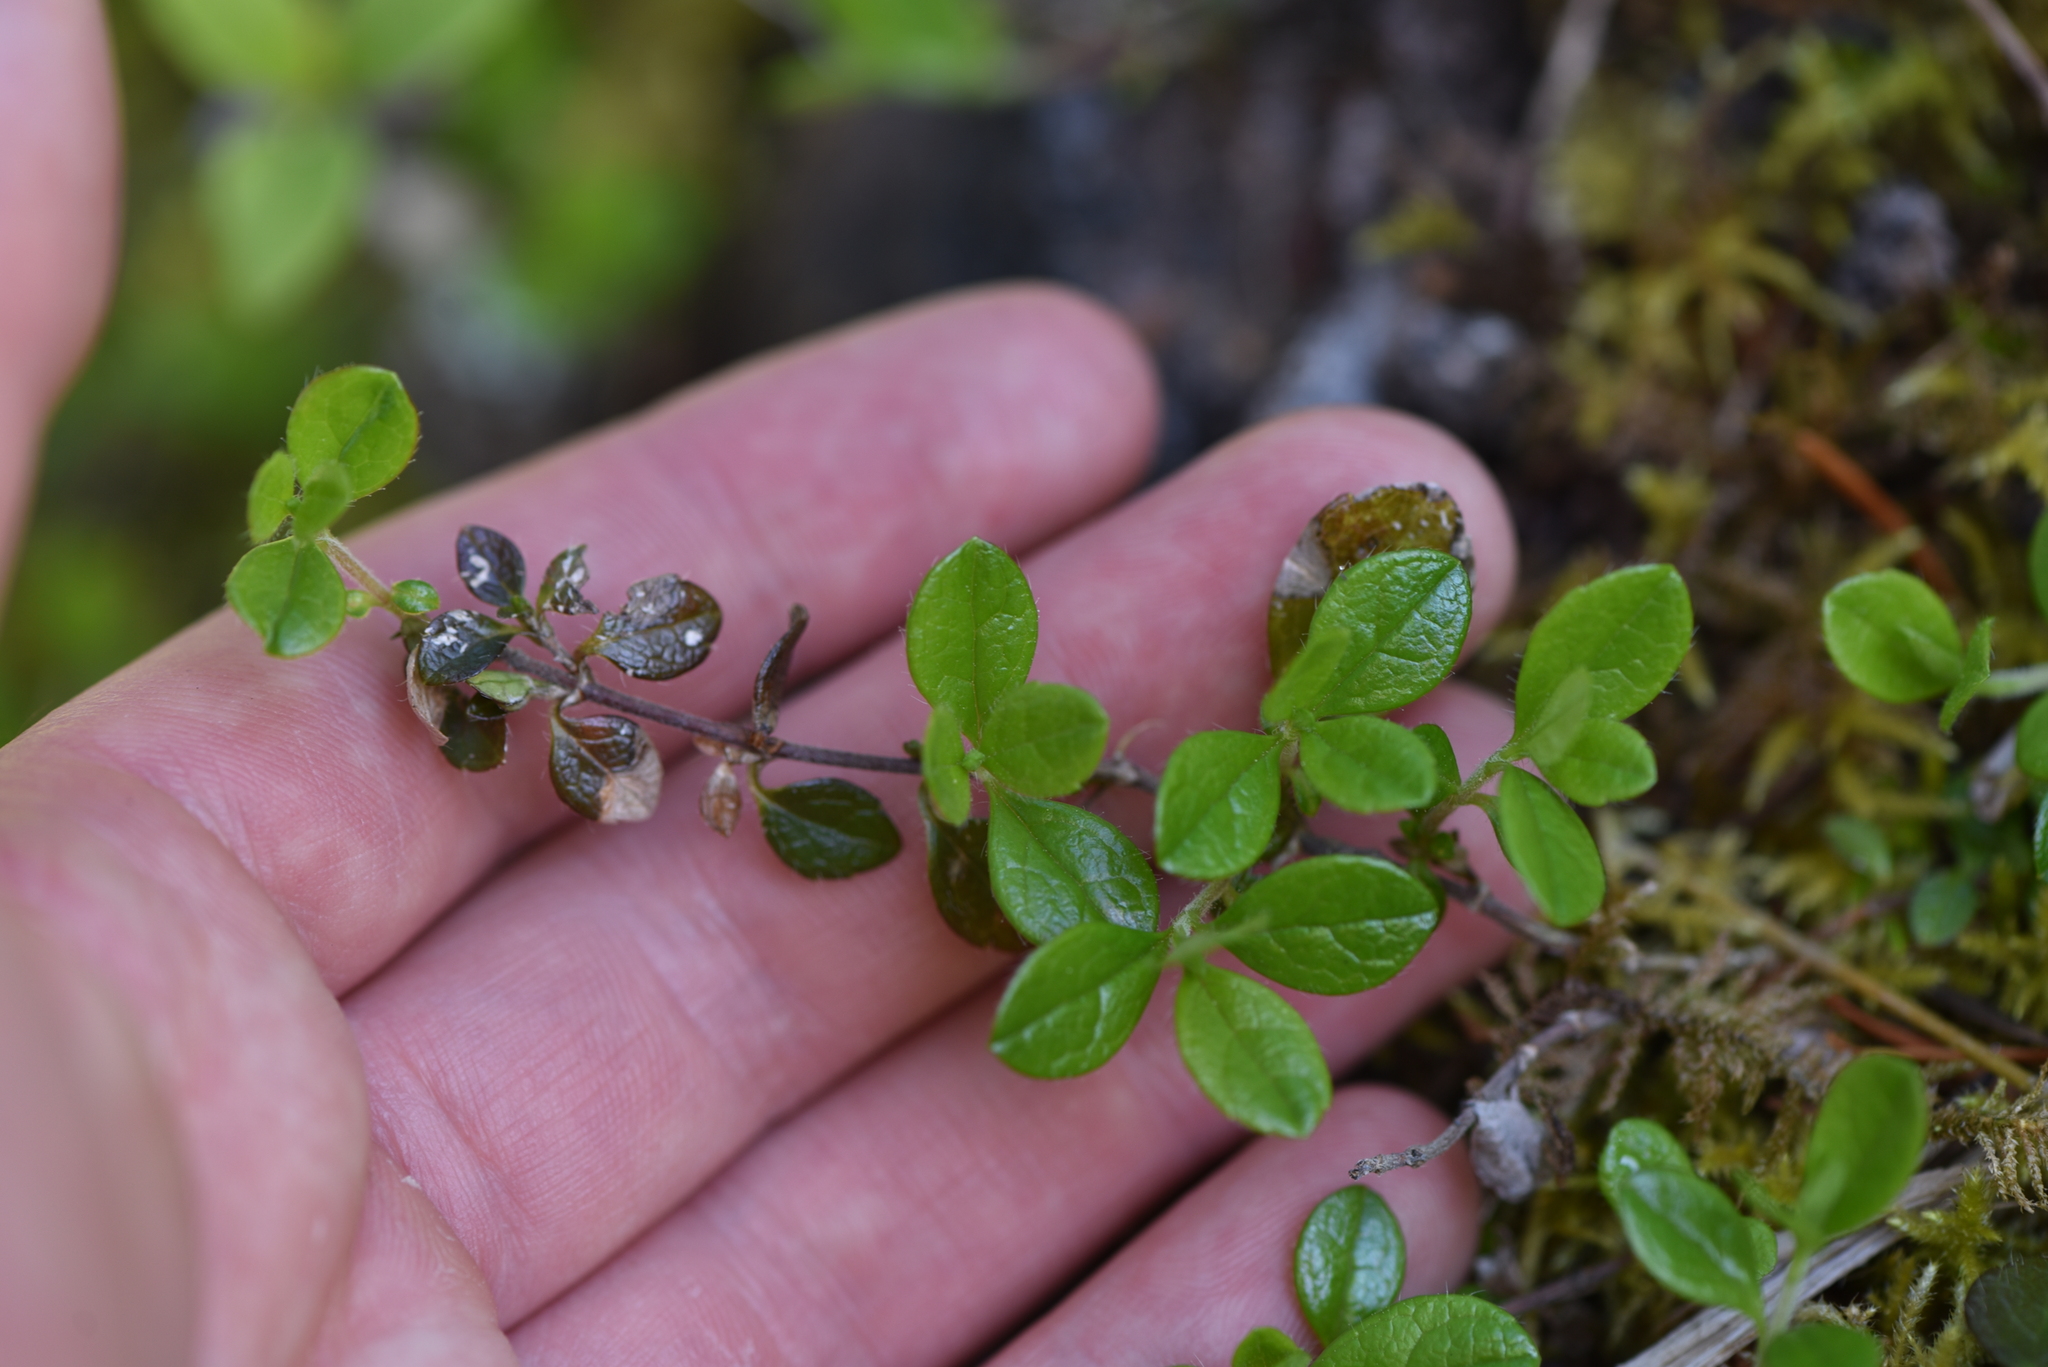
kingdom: Plantae
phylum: Tracheophyta
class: Magnoliopsida
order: Dipsacales
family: Caprifoliaceae
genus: Linnaea
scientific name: Linnaea borealis
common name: Twinflower
